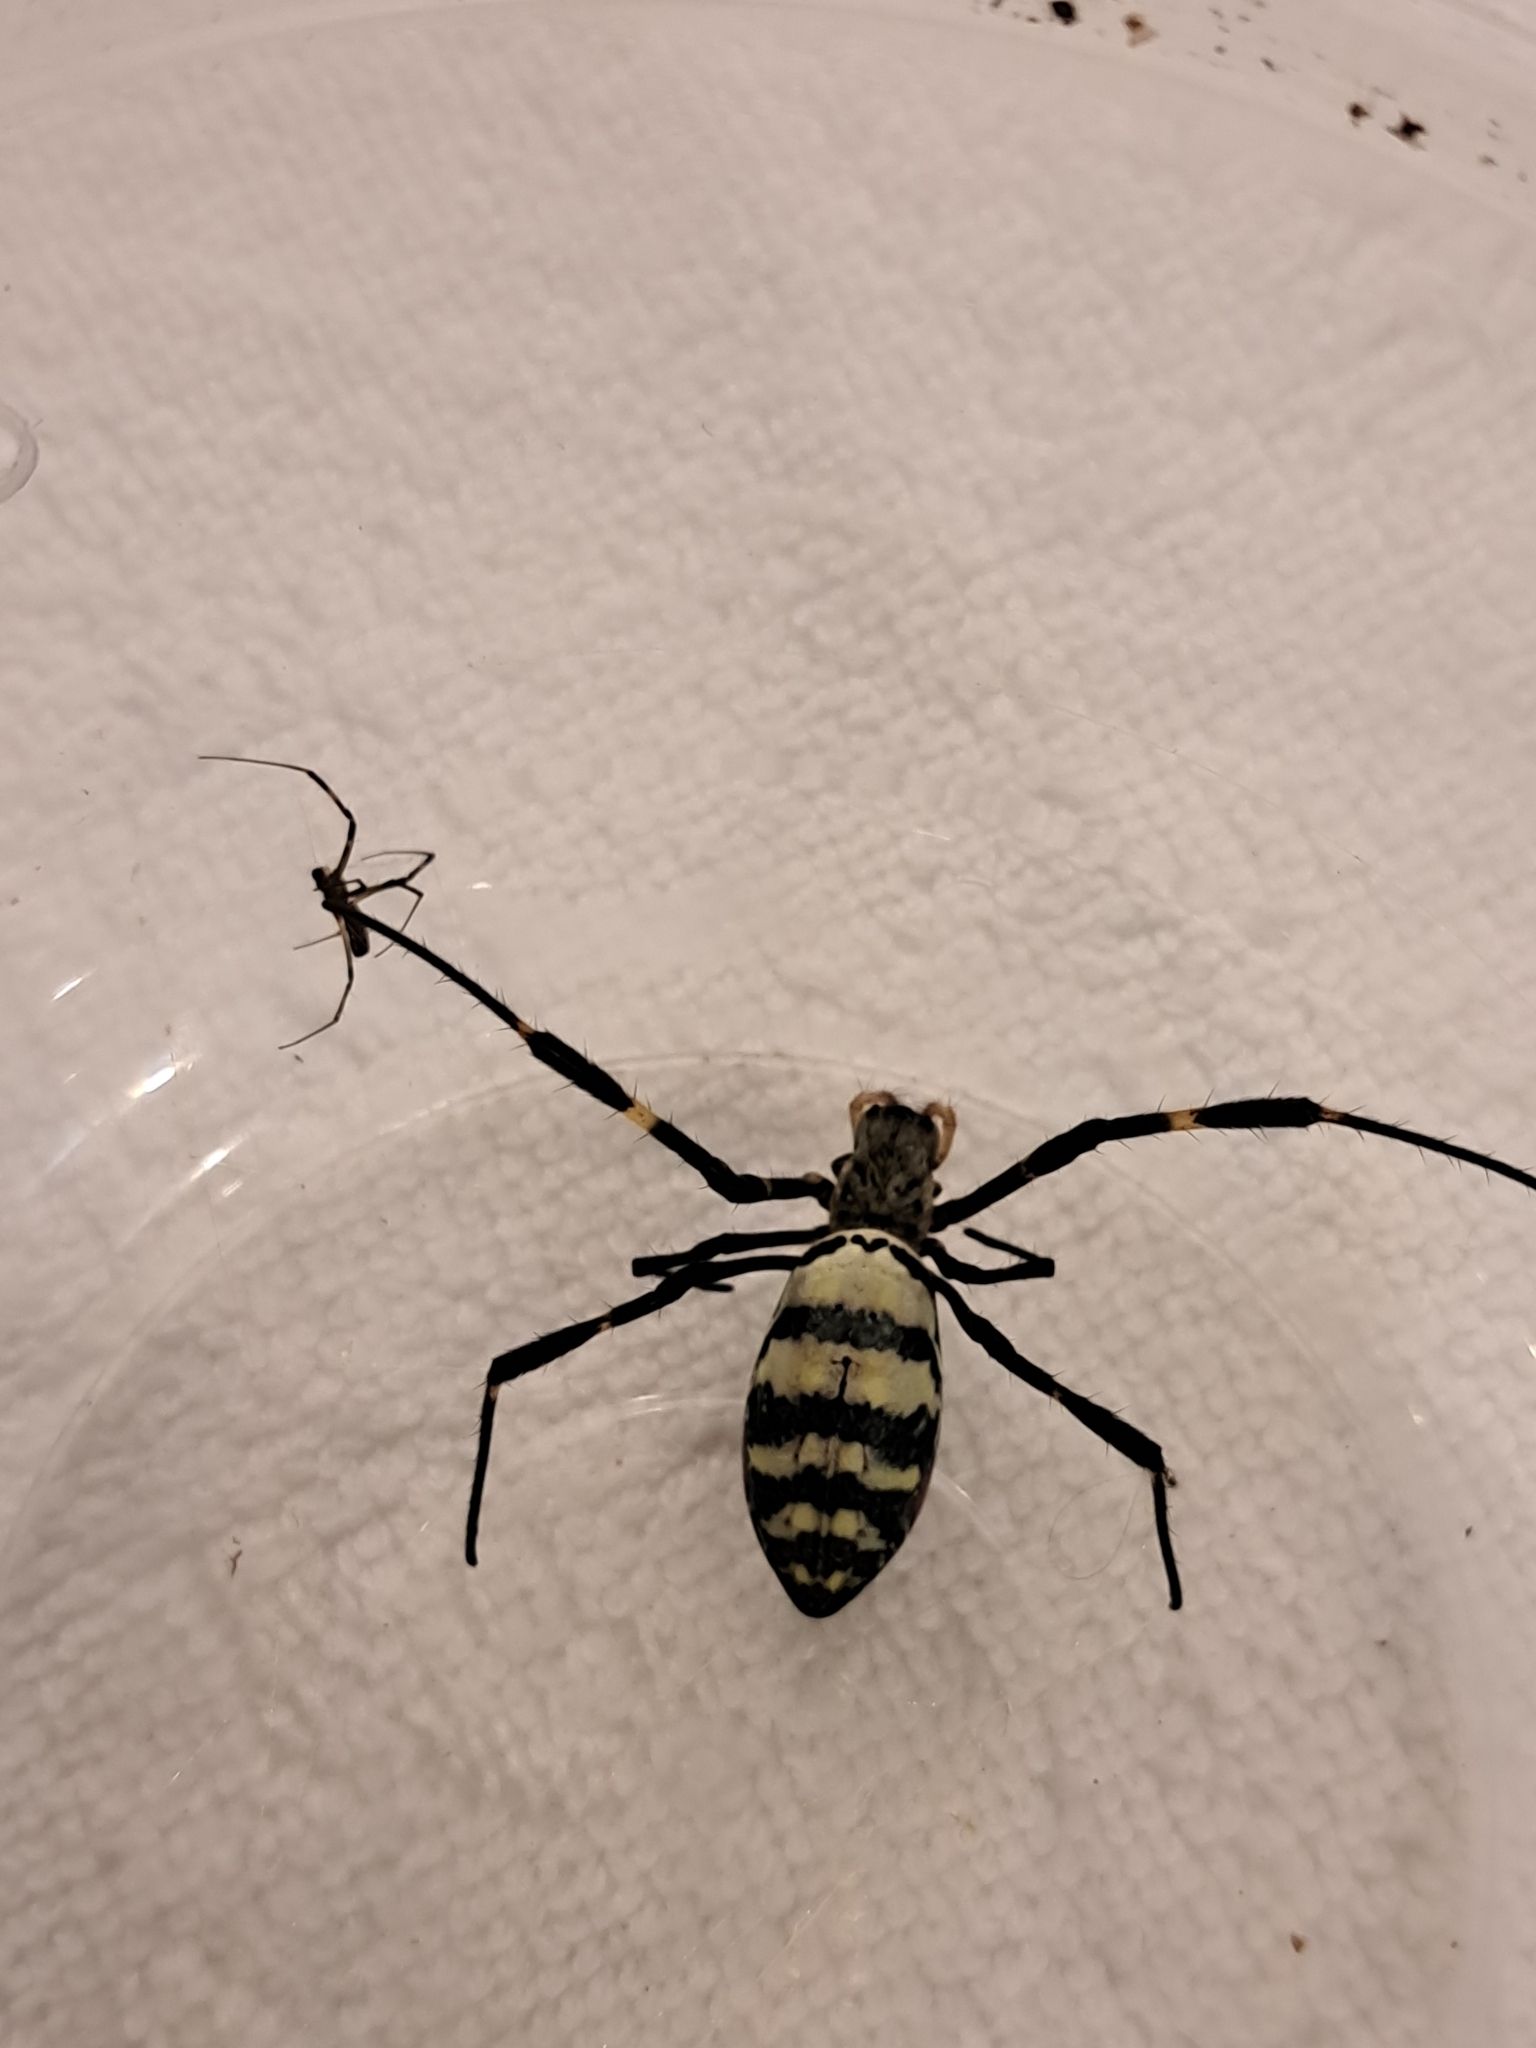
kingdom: Animalia
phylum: Arthropoda
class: Arachnida
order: Araneae
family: Araneidae
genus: Trichonephila
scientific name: Trichonephila clavata
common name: Jorō spider
